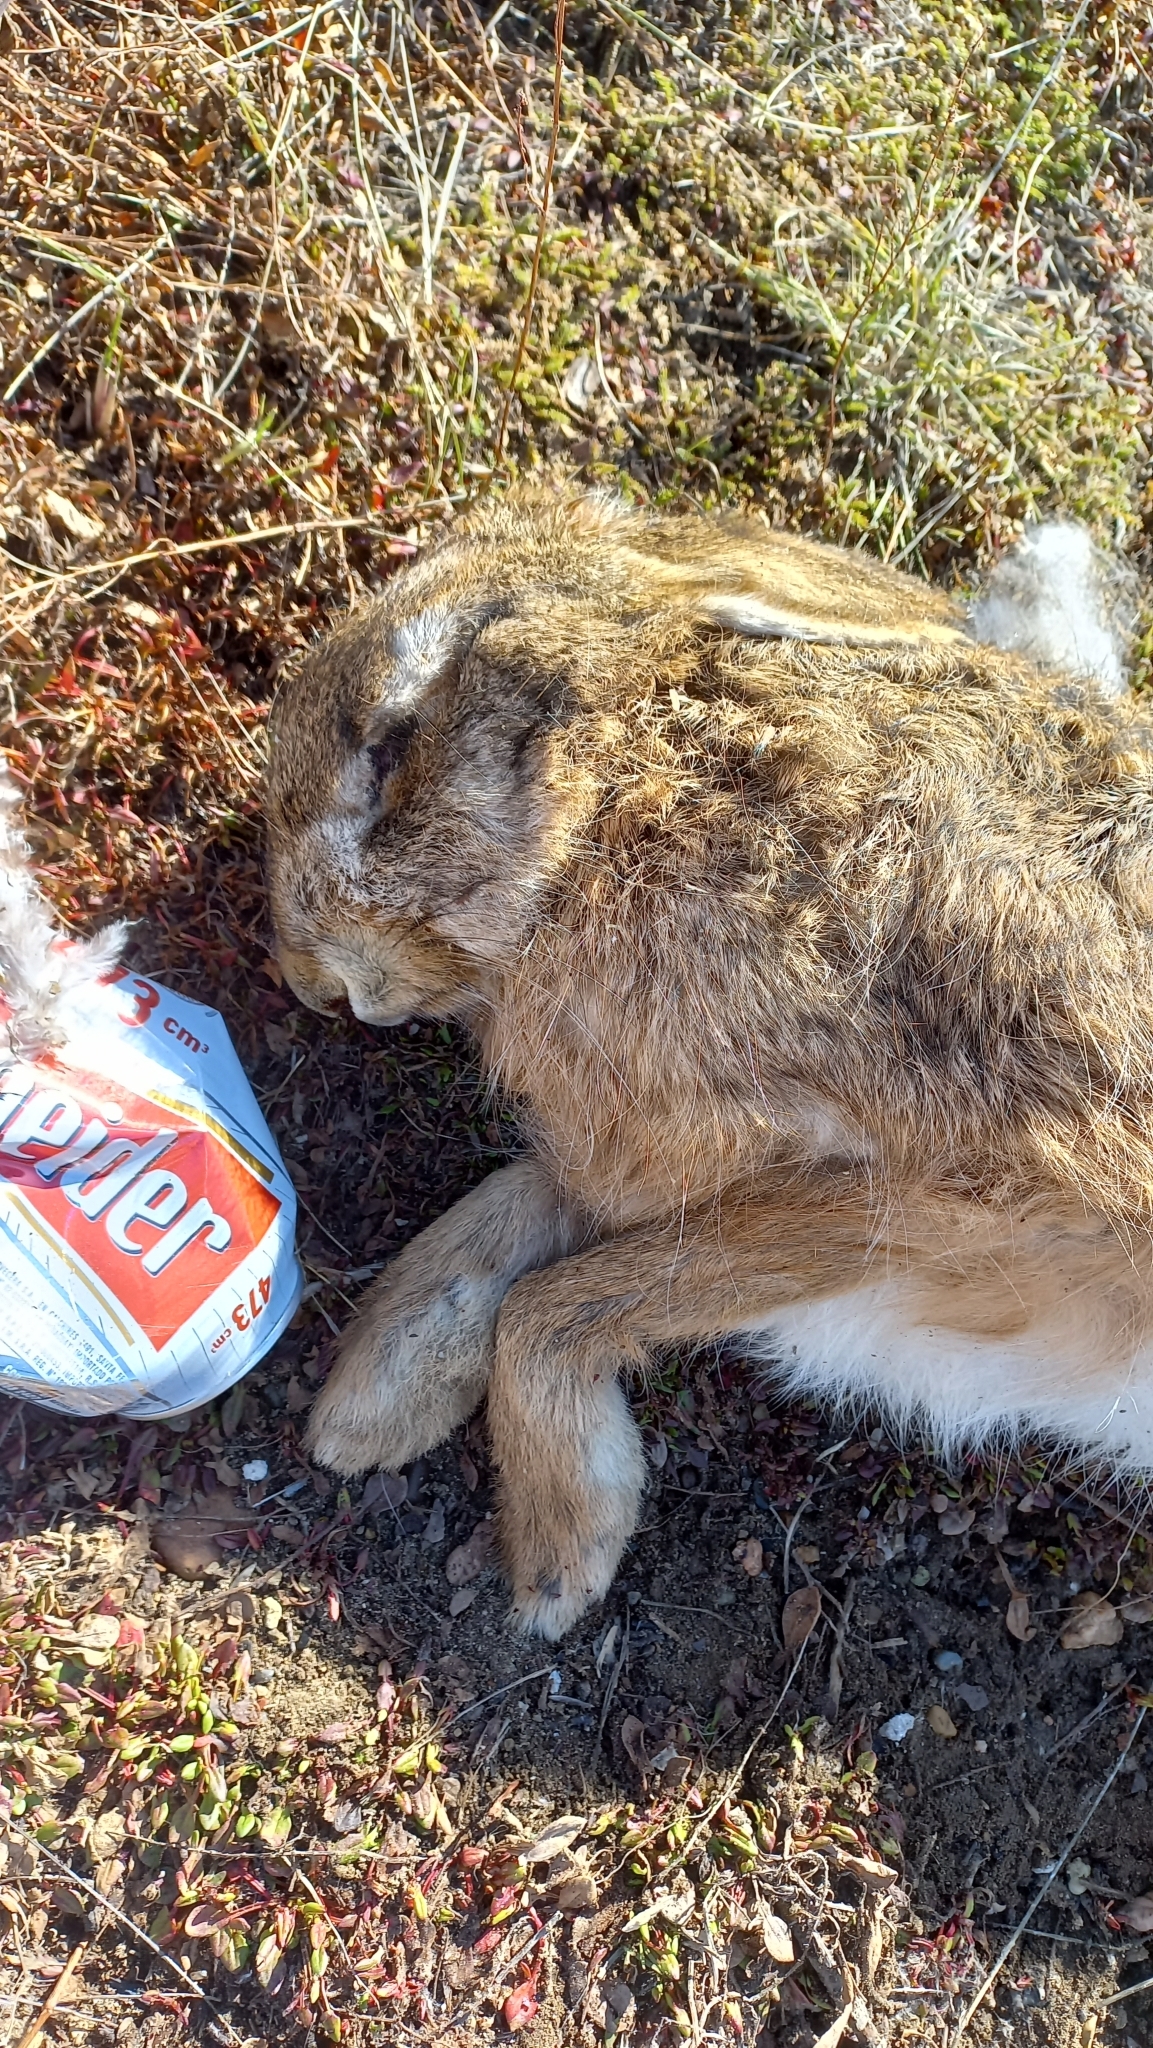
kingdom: Animalia
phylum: Chordata
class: Mammalia
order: Lagomorpha
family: Leporidae
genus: Lepus
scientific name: Lepus europaeus
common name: European hare
